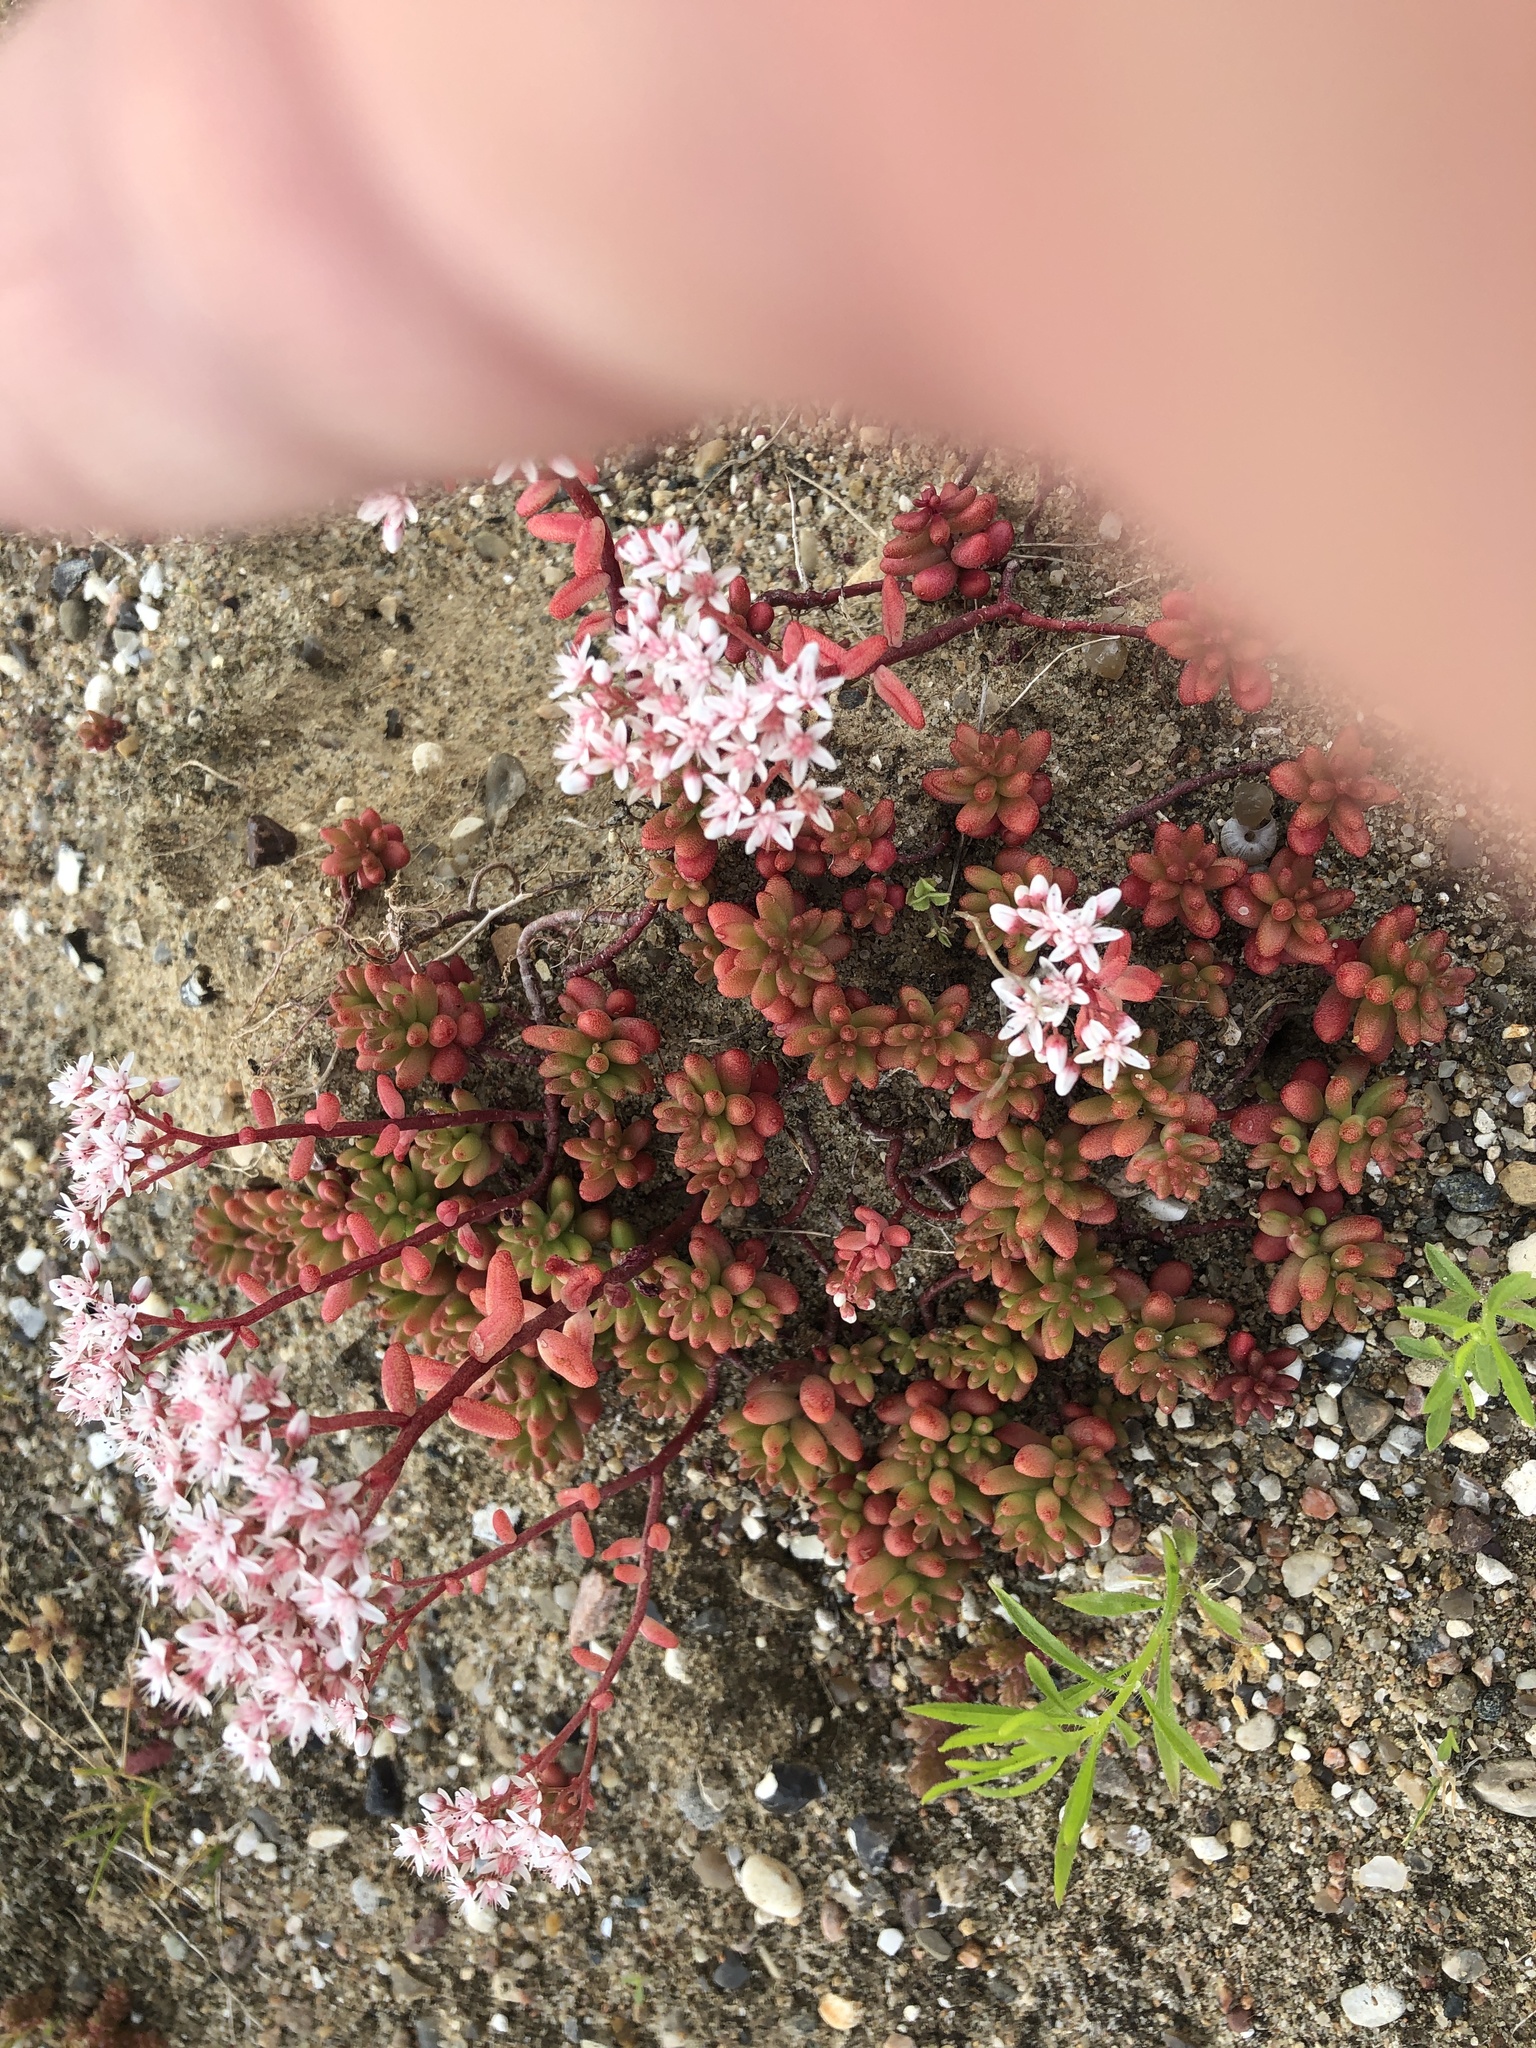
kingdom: Plantae
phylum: Tracheophyta
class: Magnoliopsida
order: Saxifragales
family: Crassulaceae
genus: Sedum
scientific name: Sedum album
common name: White stonecrop
